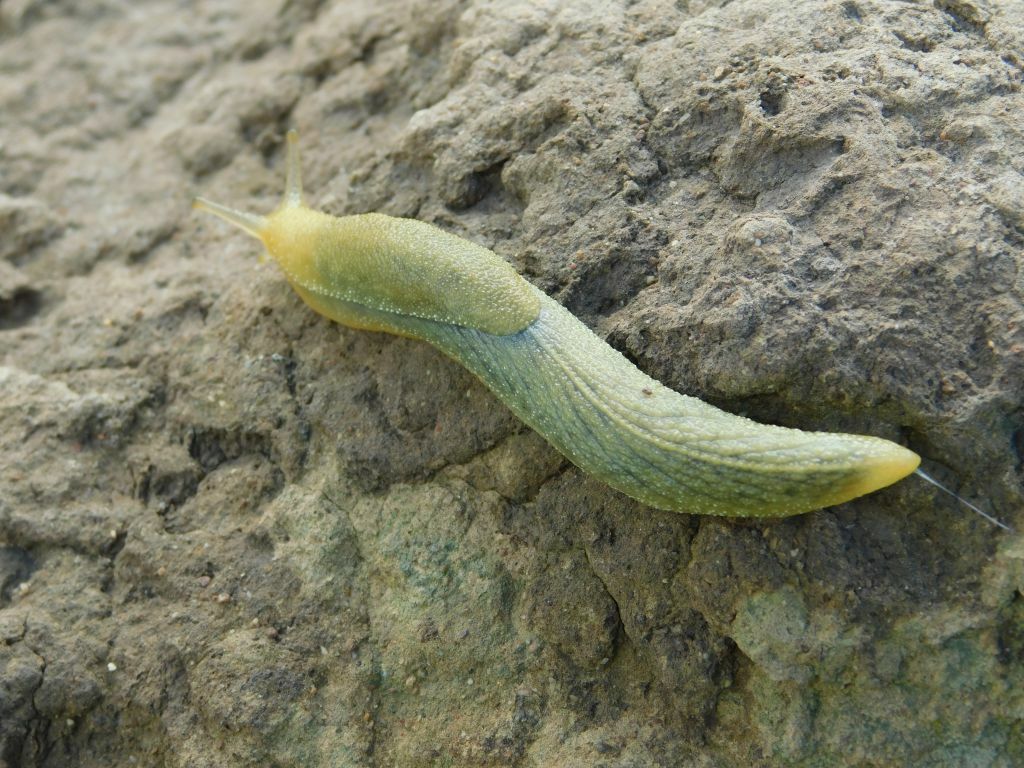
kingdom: Animalia
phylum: Mollusca
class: Gastropoda
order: Stylommatophora
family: Oopeltidae
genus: Oopelta
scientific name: Oopelta flavescens
